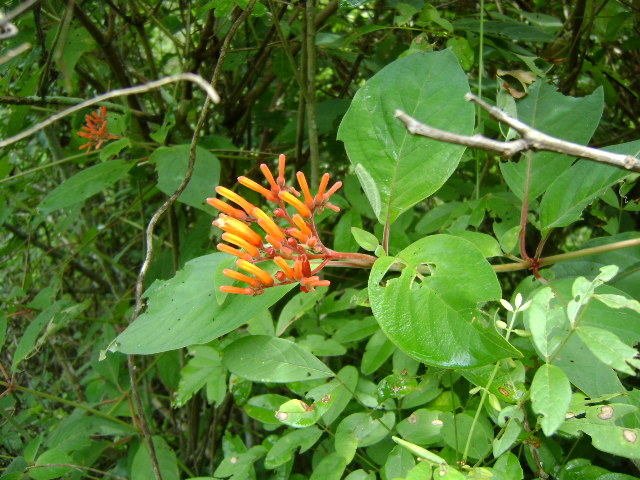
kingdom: Plantae
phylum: Tracheophyta
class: Magnoliopsida
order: Gentianales
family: Rubiaceae
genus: Hamelia
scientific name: Hamelia patens
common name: Redhead
